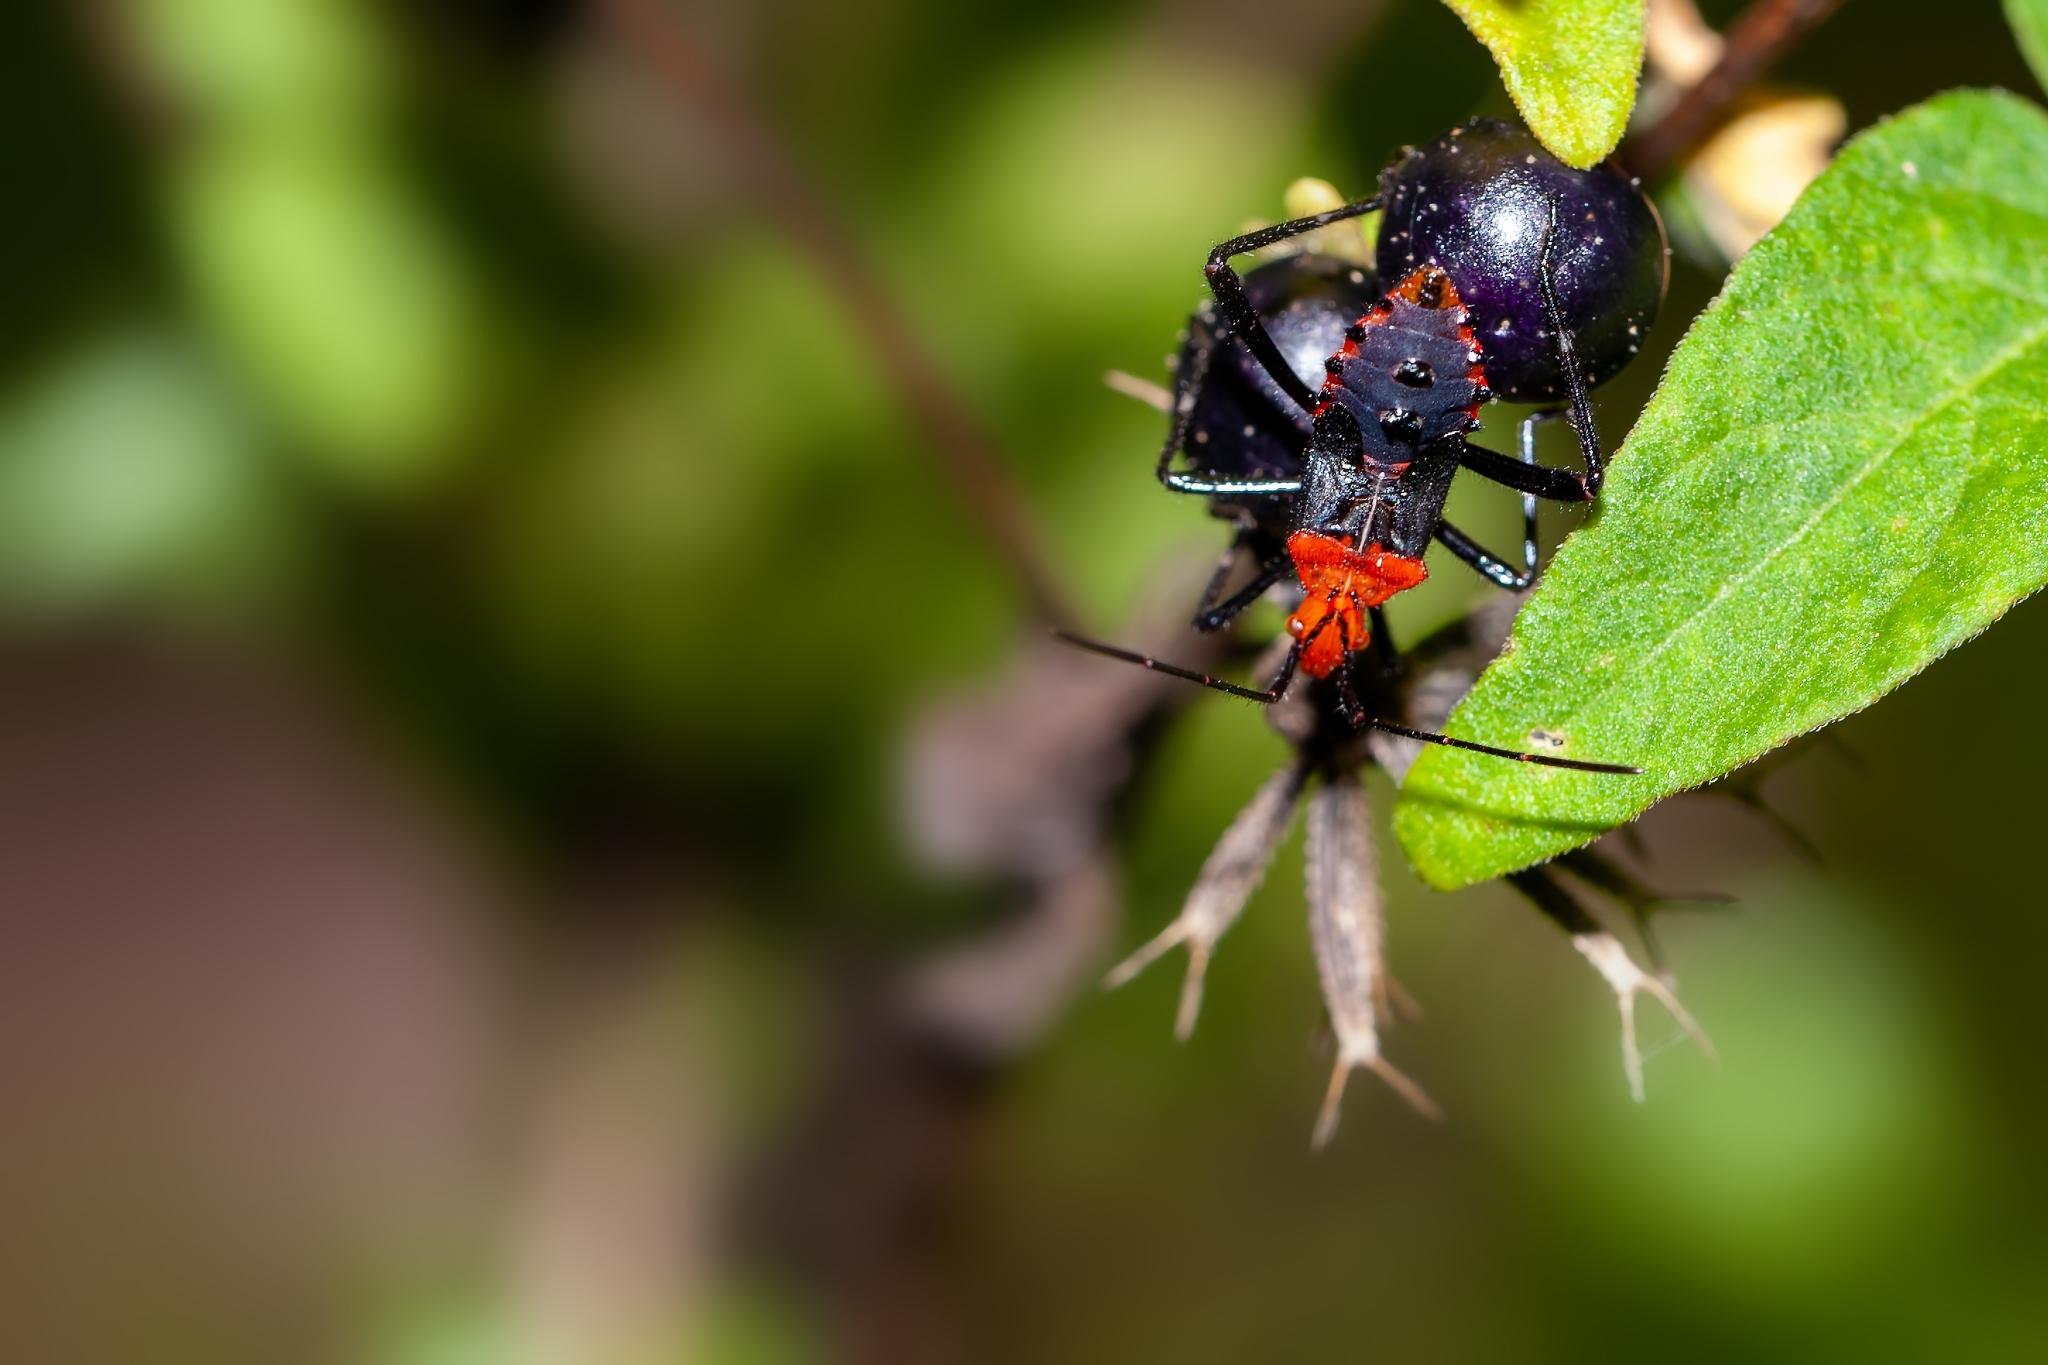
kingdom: Animalia
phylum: Arthropoda
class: Insecta
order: Hemiptera
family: Coreidae
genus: Phthiacnemia
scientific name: Phthiacnemia picta
